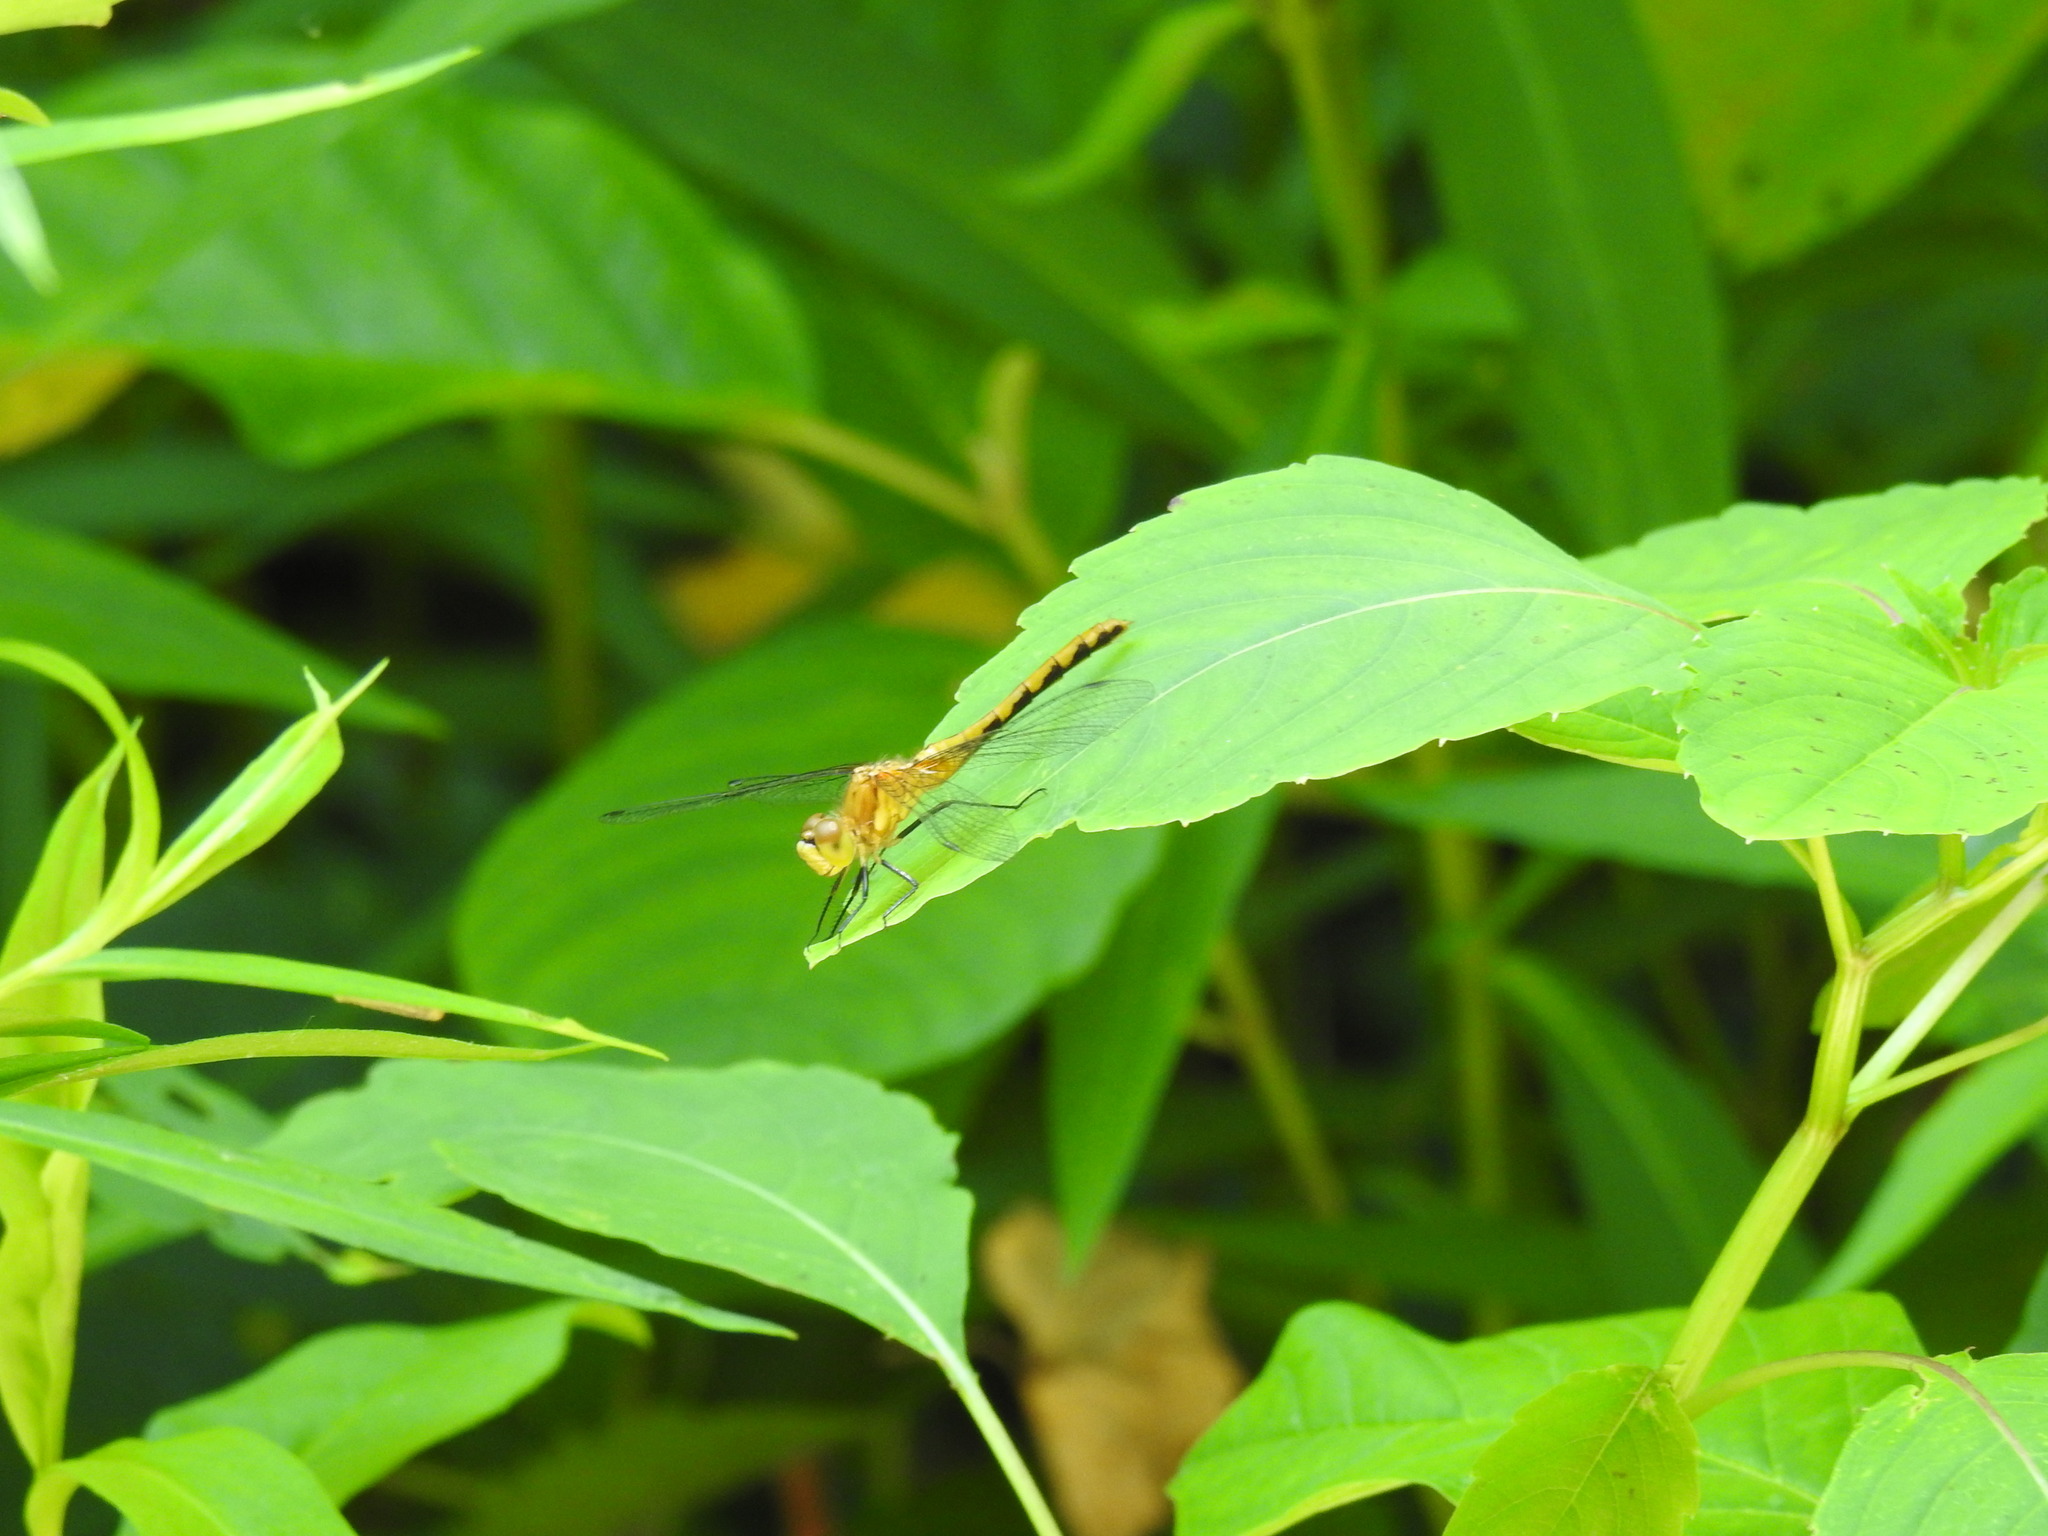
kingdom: Animalia
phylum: Arthropoda
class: Insecta
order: Odonata
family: Libellulidae
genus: Sympetrum
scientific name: Sympetrum
